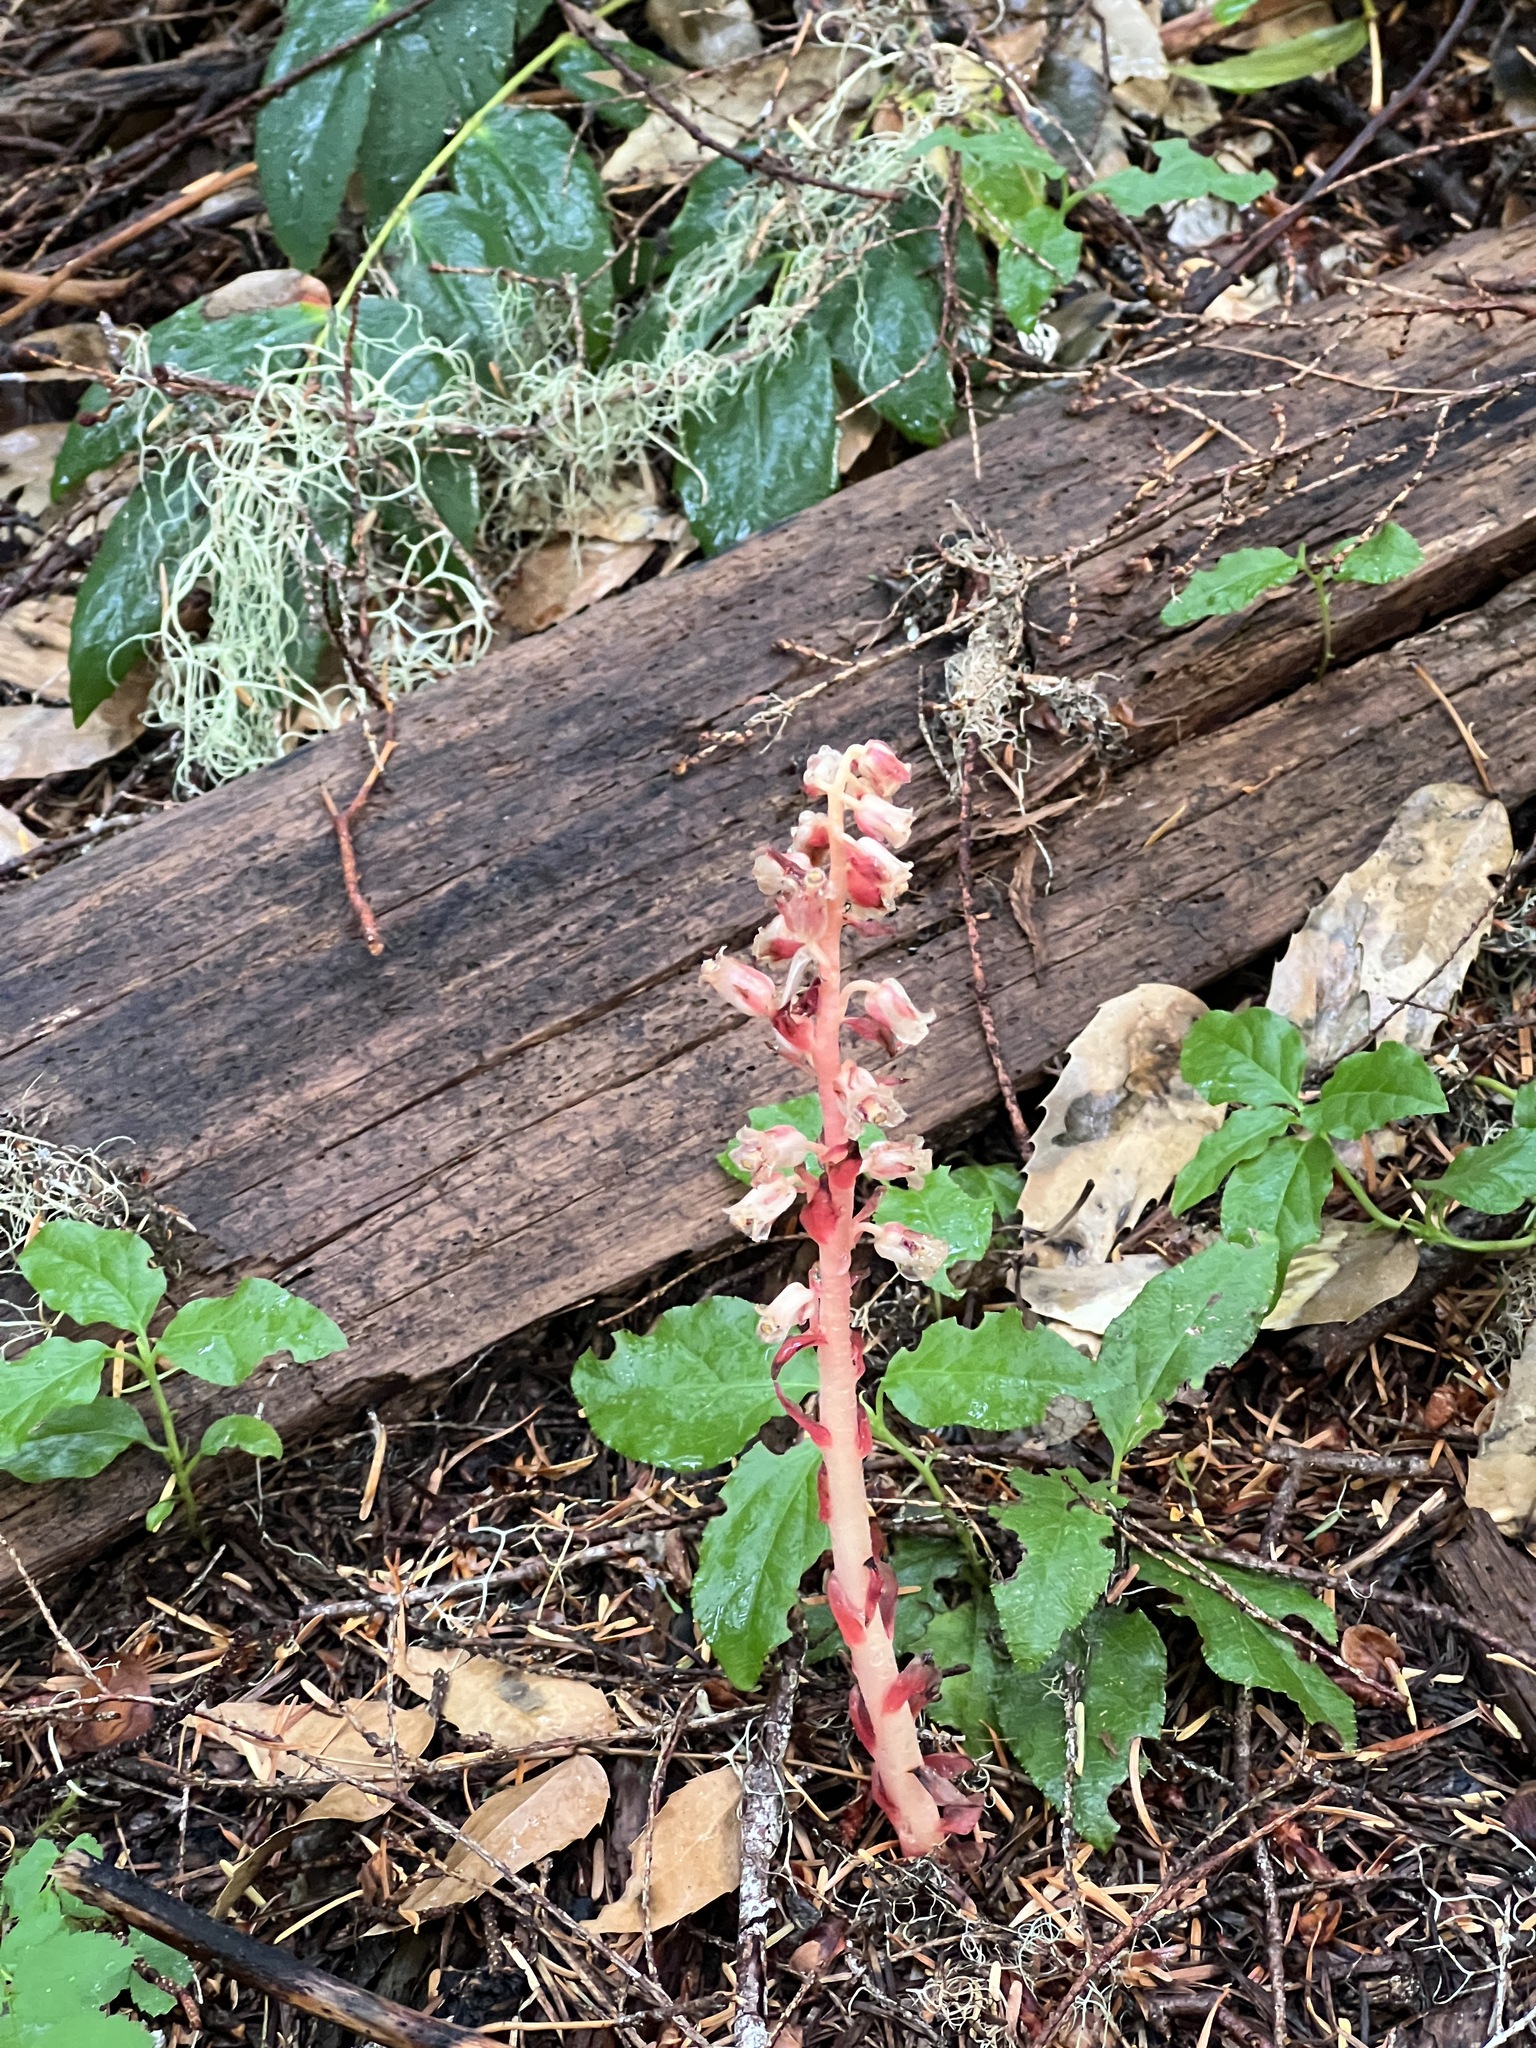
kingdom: Plantae
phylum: Tracheophyta
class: Magnoliopsida
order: Ericales
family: Ericaceae
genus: Hypopitys
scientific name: Hypopitys monotropa
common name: Yellow bird's-nest
